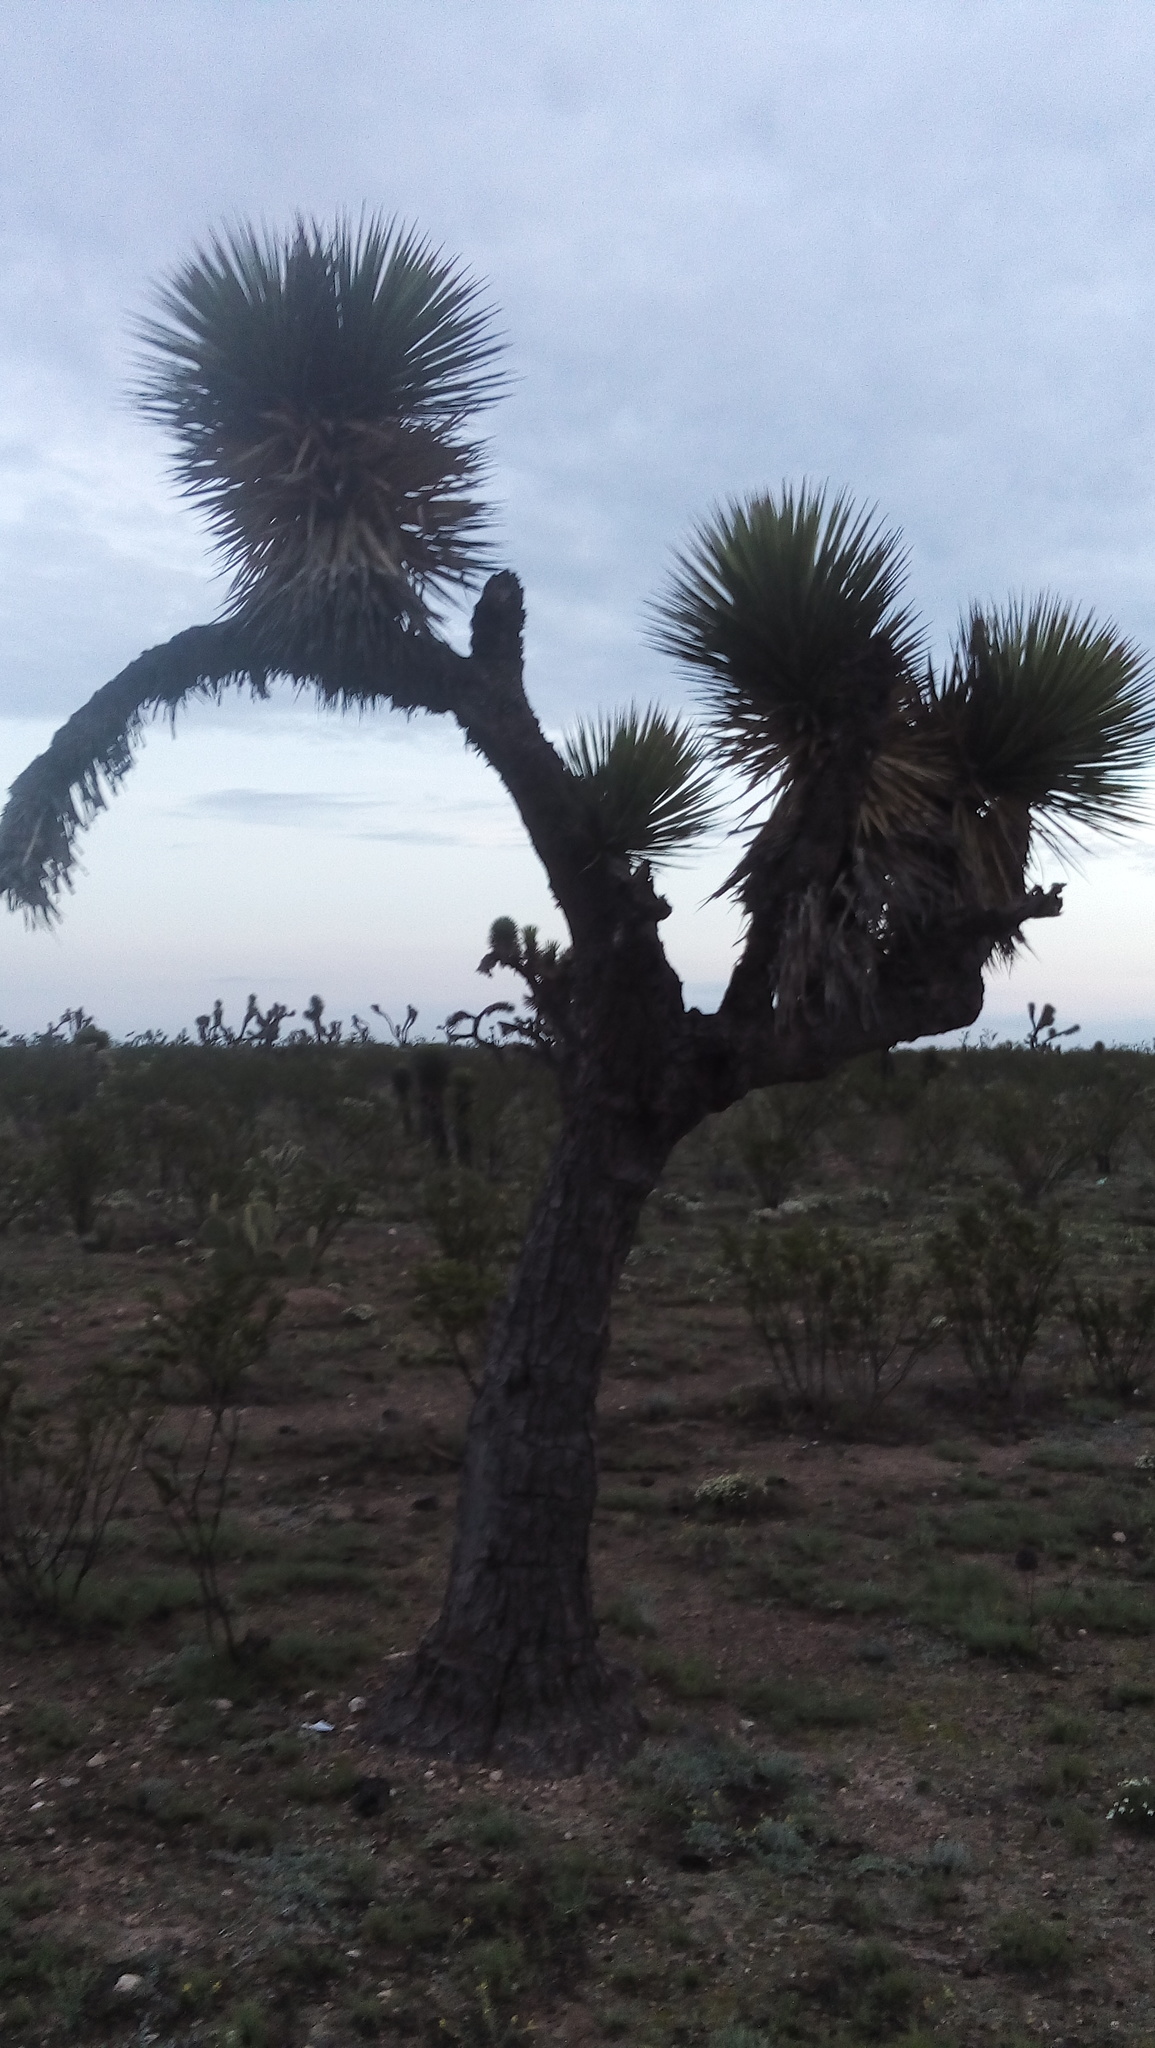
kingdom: Plantae
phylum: Tracheophyta
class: Liliopsida
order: Asparagales
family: Asparagaceae
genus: Yucca
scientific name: Yucca decipiens
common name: Chinese palm
